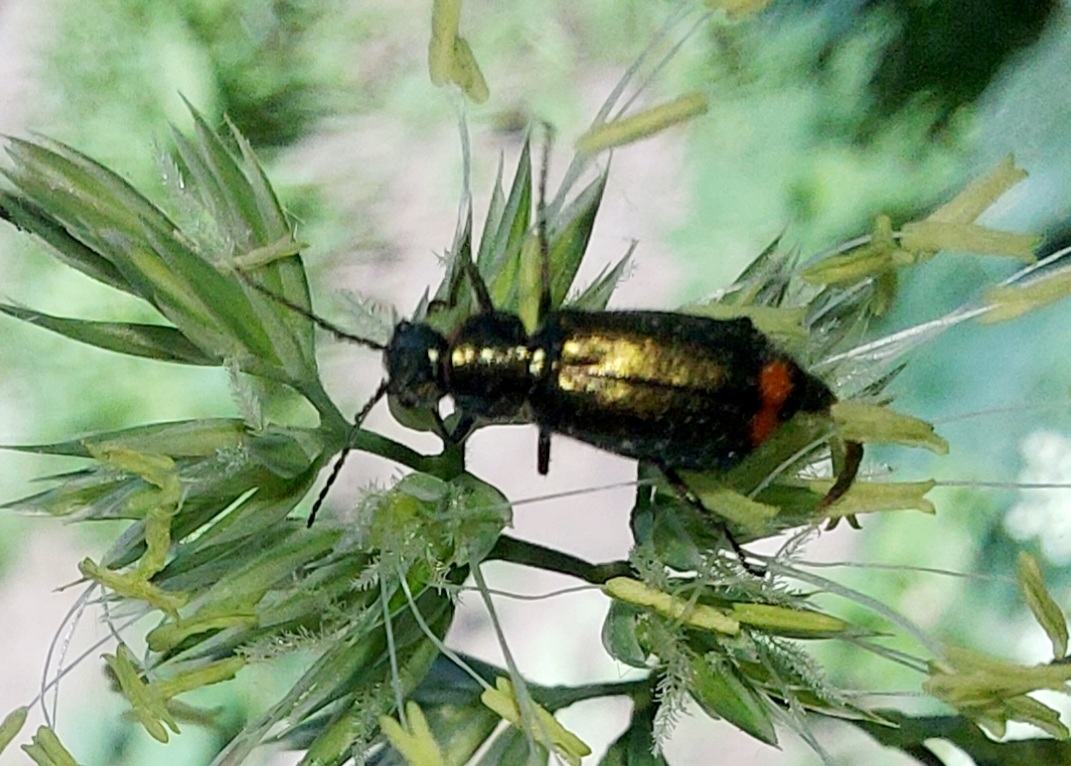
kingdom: Animalia
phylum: Arthropoda
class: Insecta
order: Coleoptera
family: Melyridae
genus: Malachius
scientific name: Malachius bipustulatus
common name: Malachite beetle
